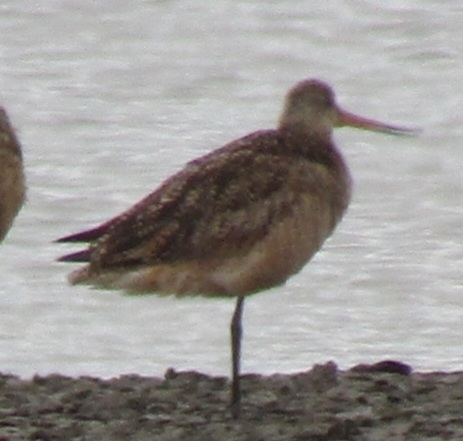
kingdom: Animalia
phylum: Chordata
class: Aves
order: Charadriiformes
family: Scolopacidae
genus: Limosa
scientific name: Limosa fedoa
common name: Marbled godwit
